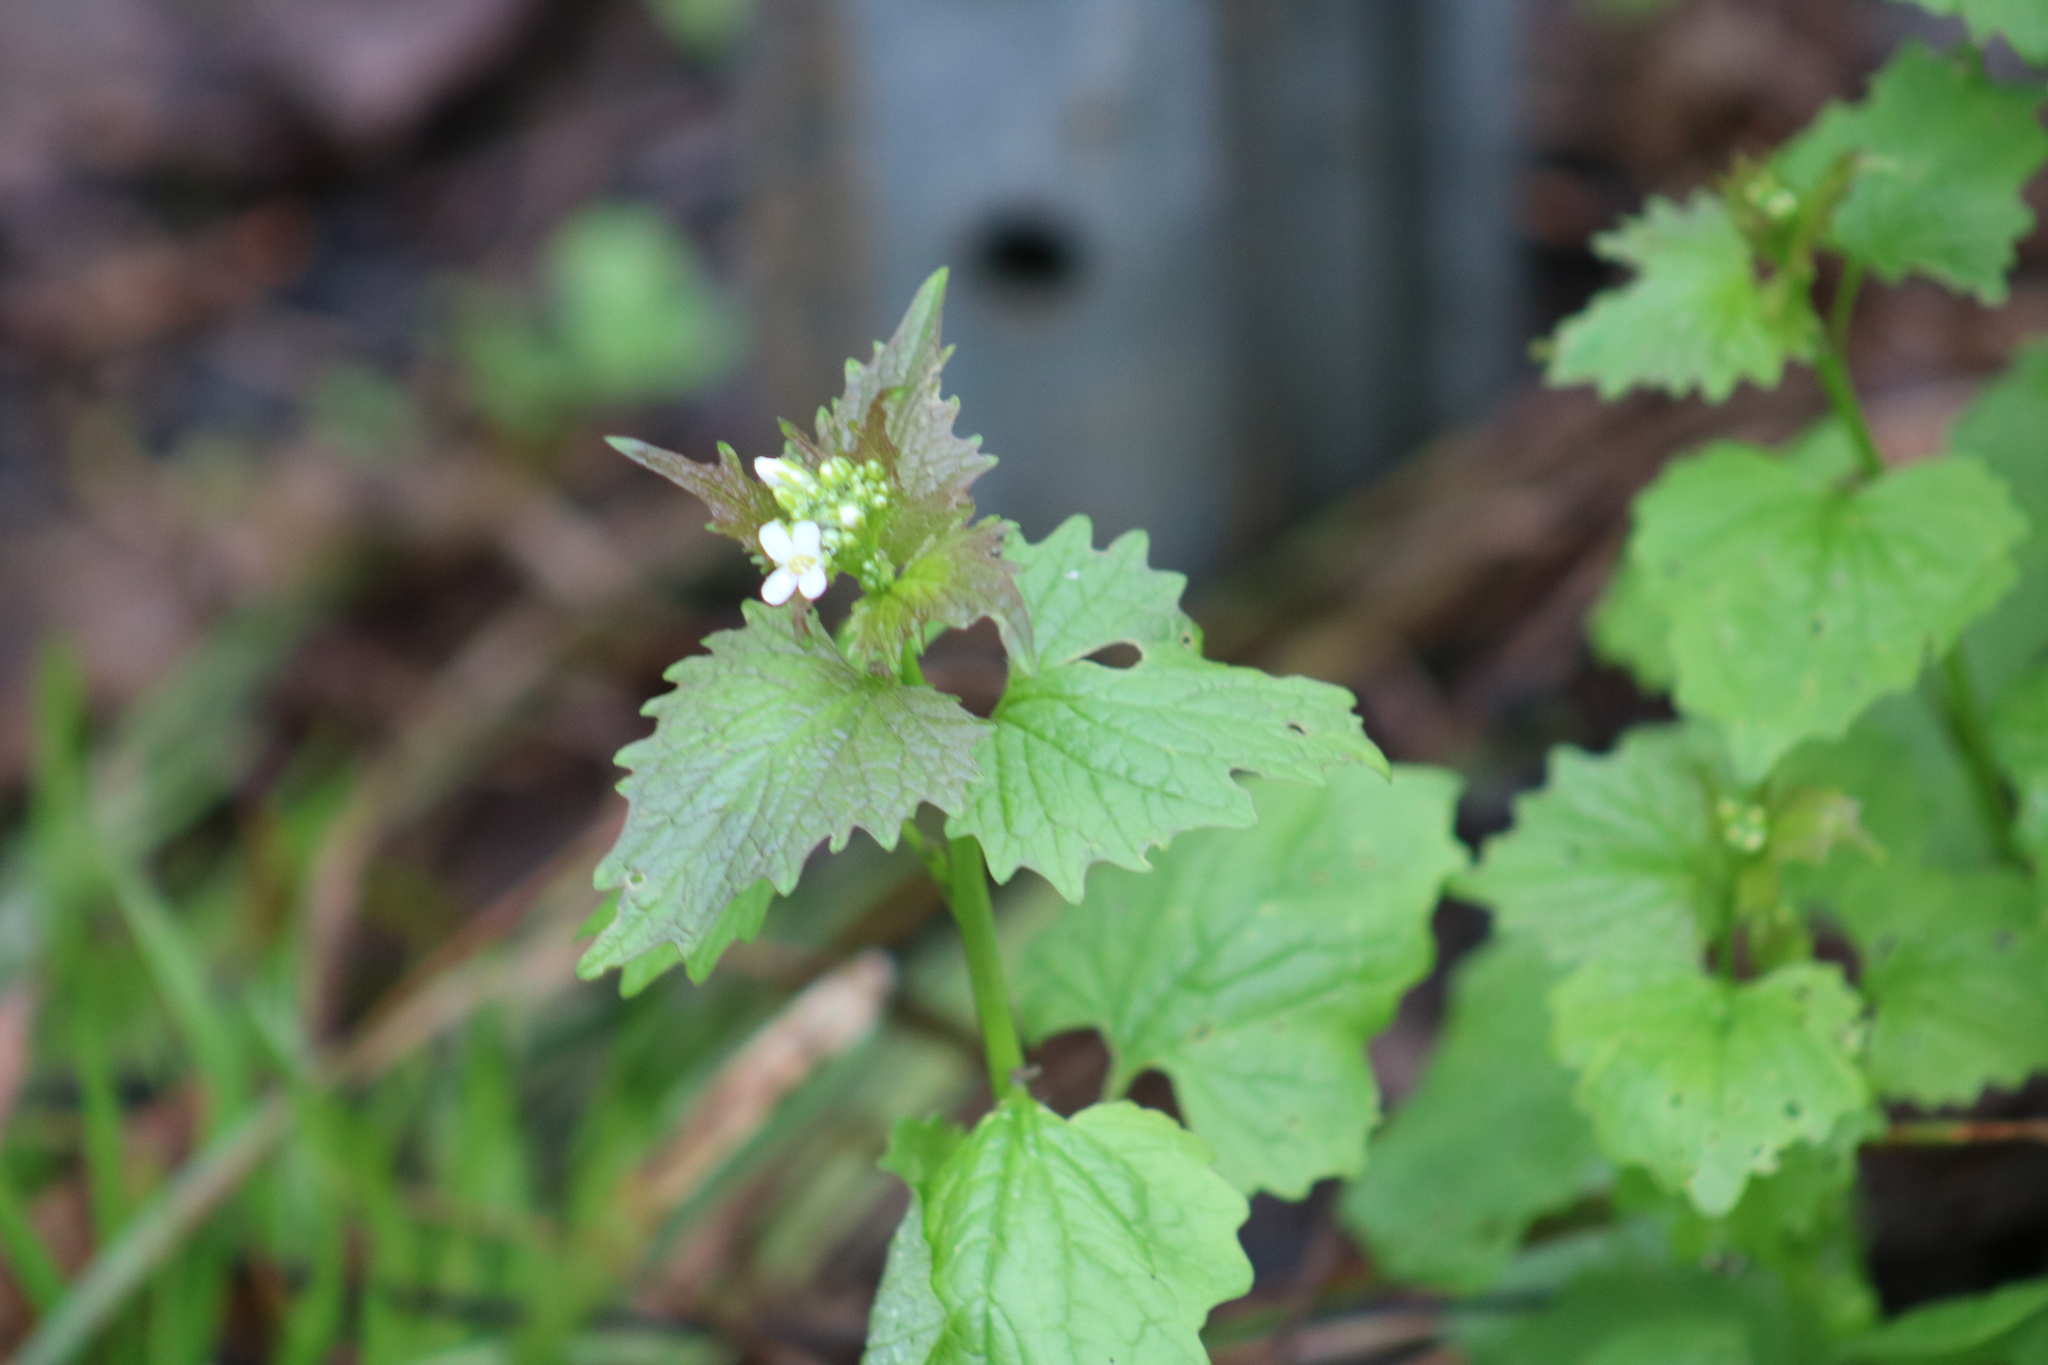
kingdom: Plantae
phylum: Tracheophyta
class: Magnoliopsida
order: Brassicales
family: Brassicaceae
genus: Alliaria
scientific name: Alliaria petiolata
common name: Garlic mustard
